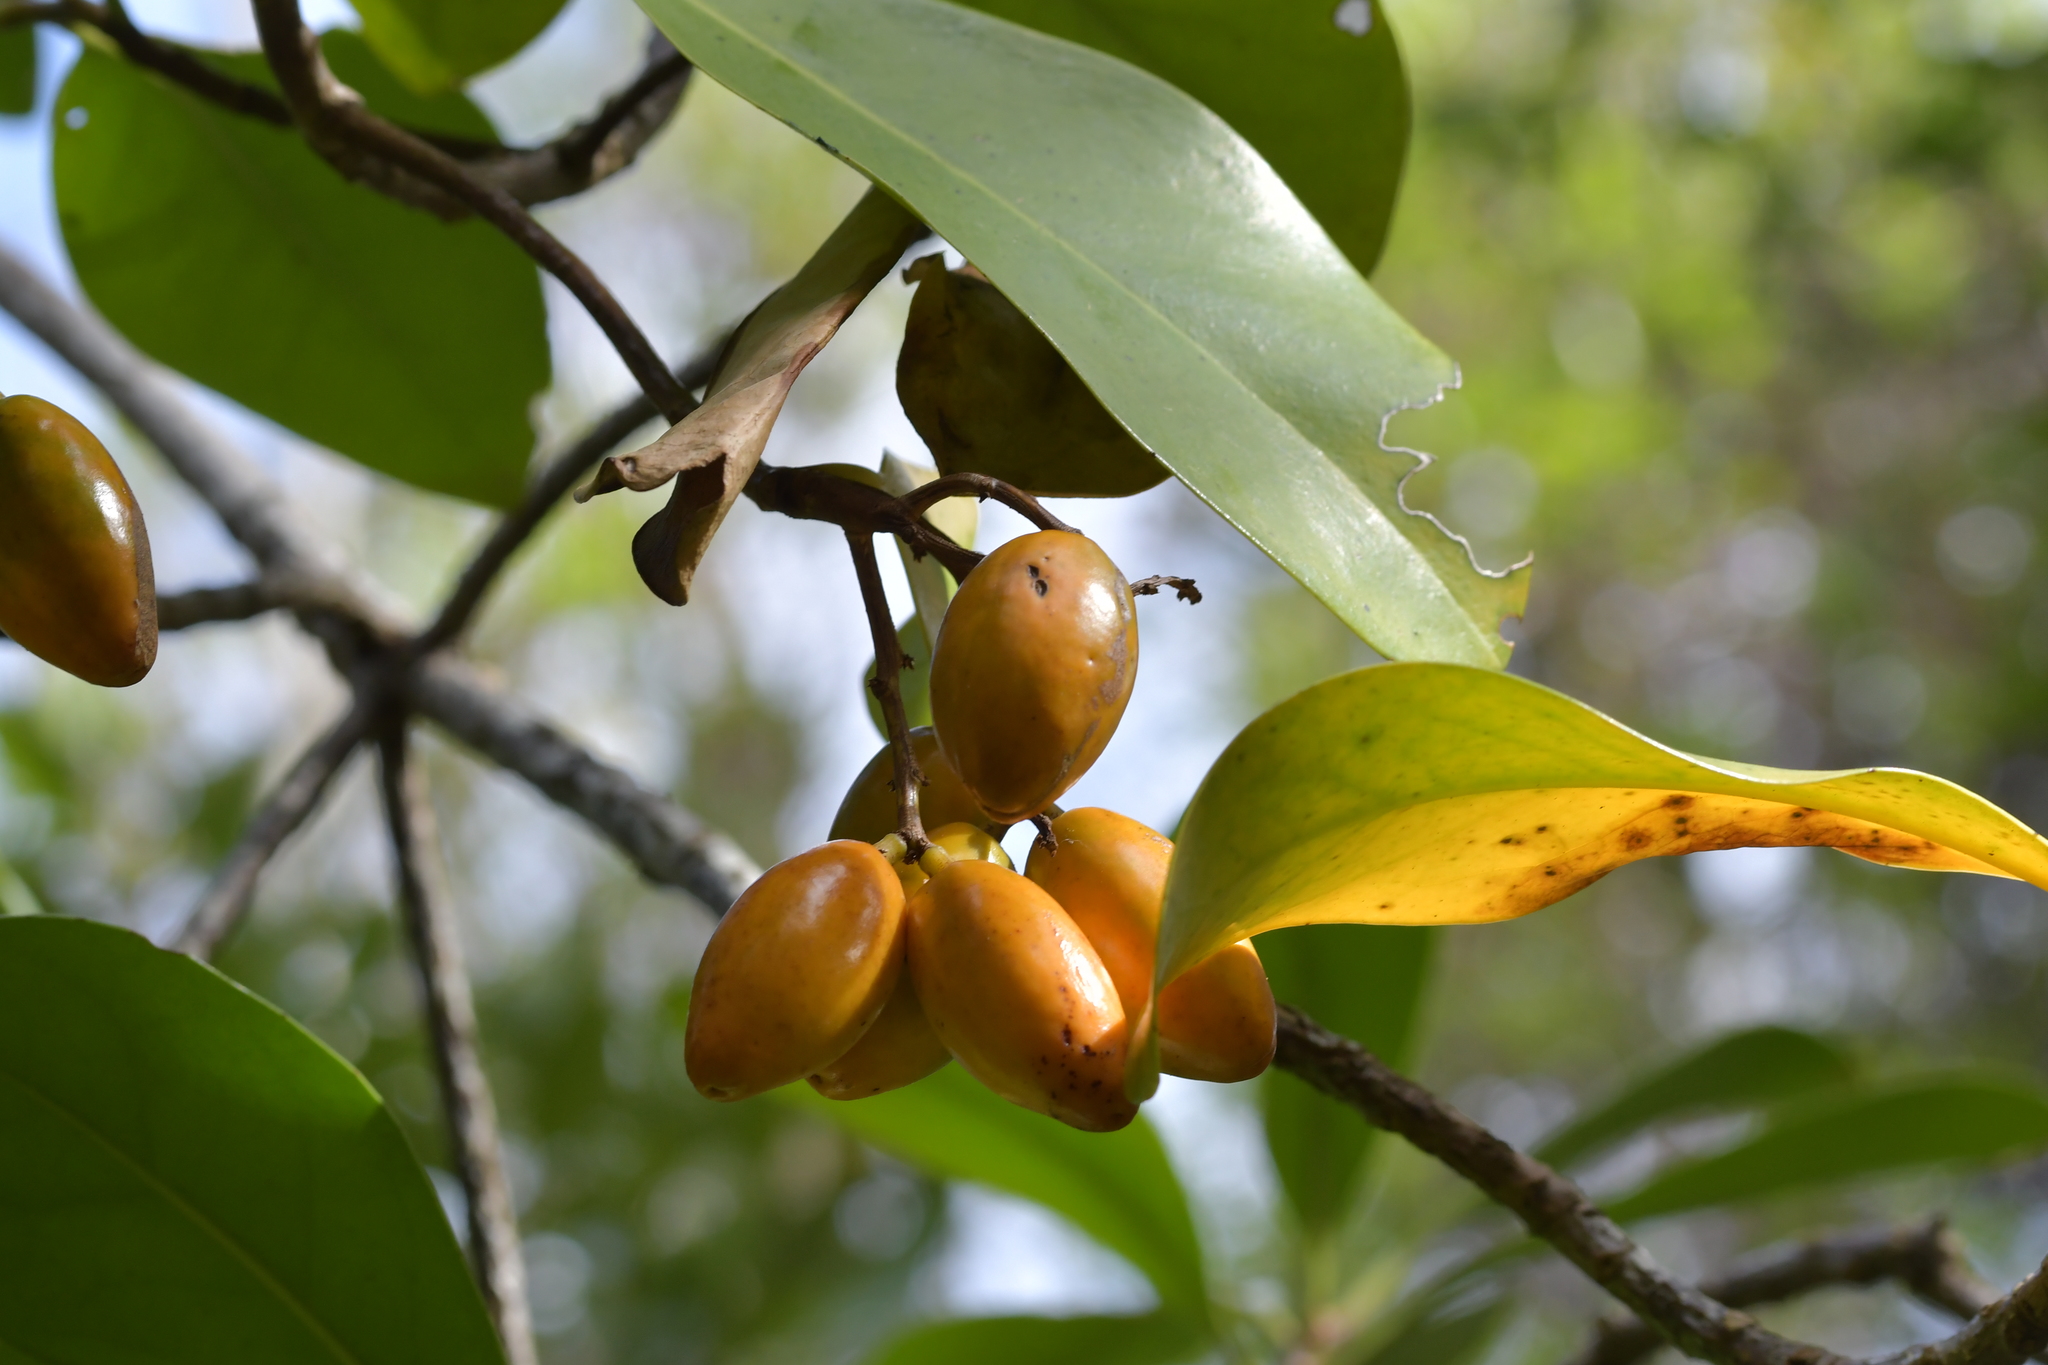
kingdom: Plantae
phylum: Tracheophyta
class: Magnoliopsida
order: Cucurbitales
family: Corynocarpaceae
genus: Corynocarpus
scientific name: Corynocarpus laevigatus
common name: New zealand laurel
